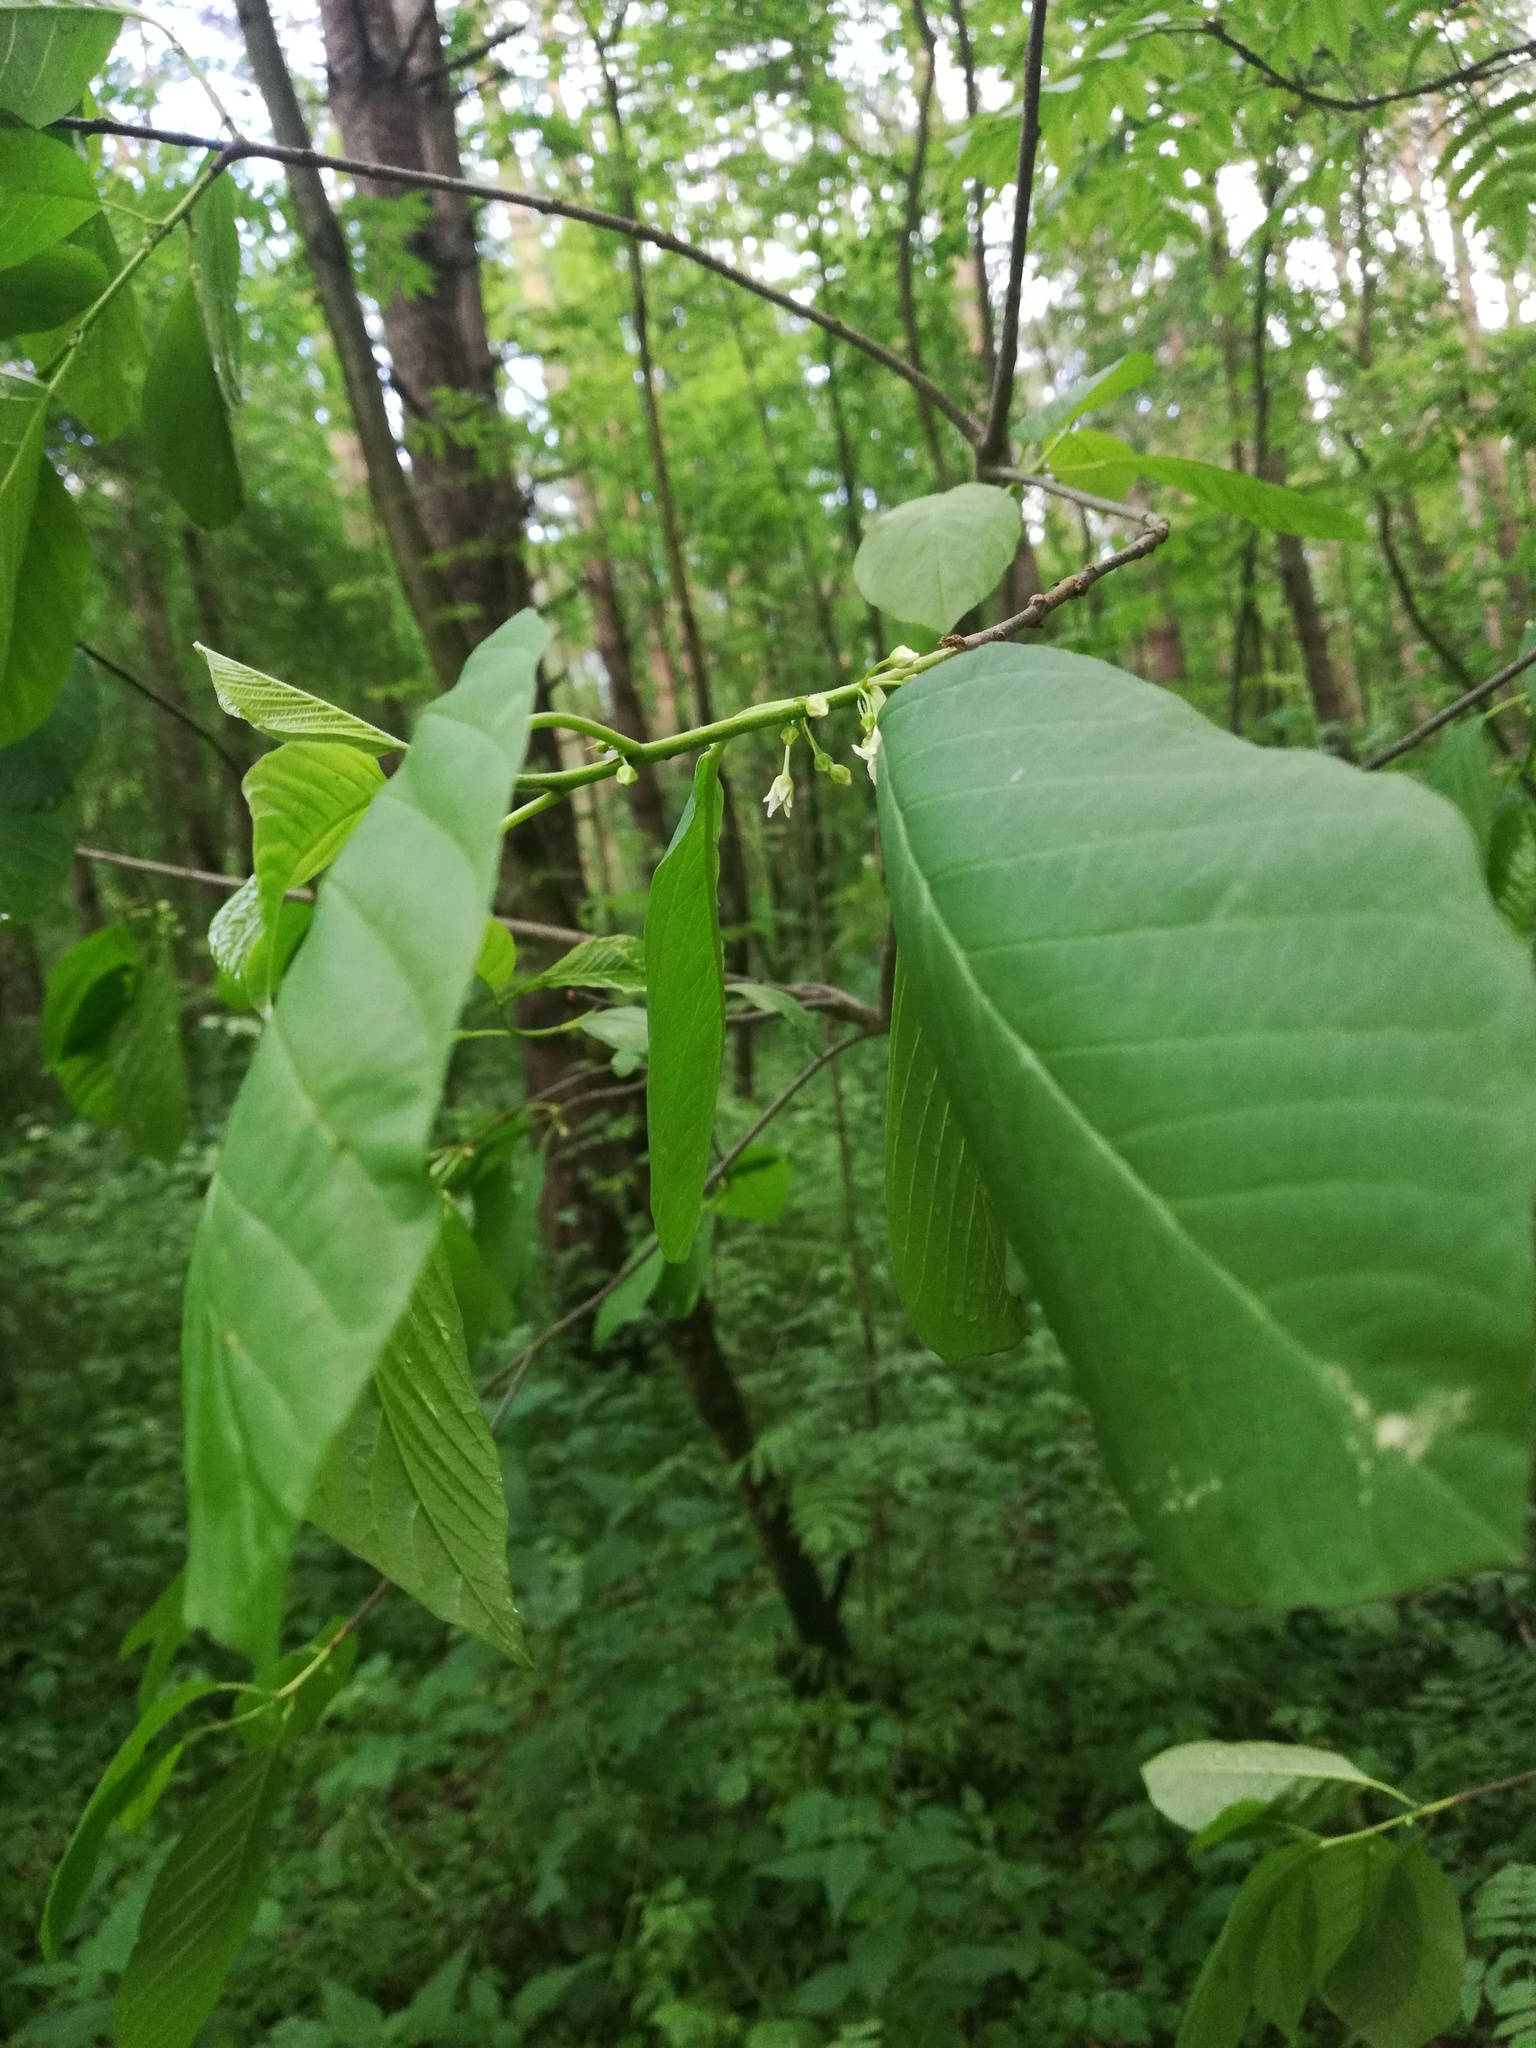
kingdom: Plantae
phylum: Tracheophyta
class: Magnoliopsida
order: Rosales
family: Rhamnaceae
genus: Frangula
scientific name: Frangula alnus
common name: Alder buckthorn
